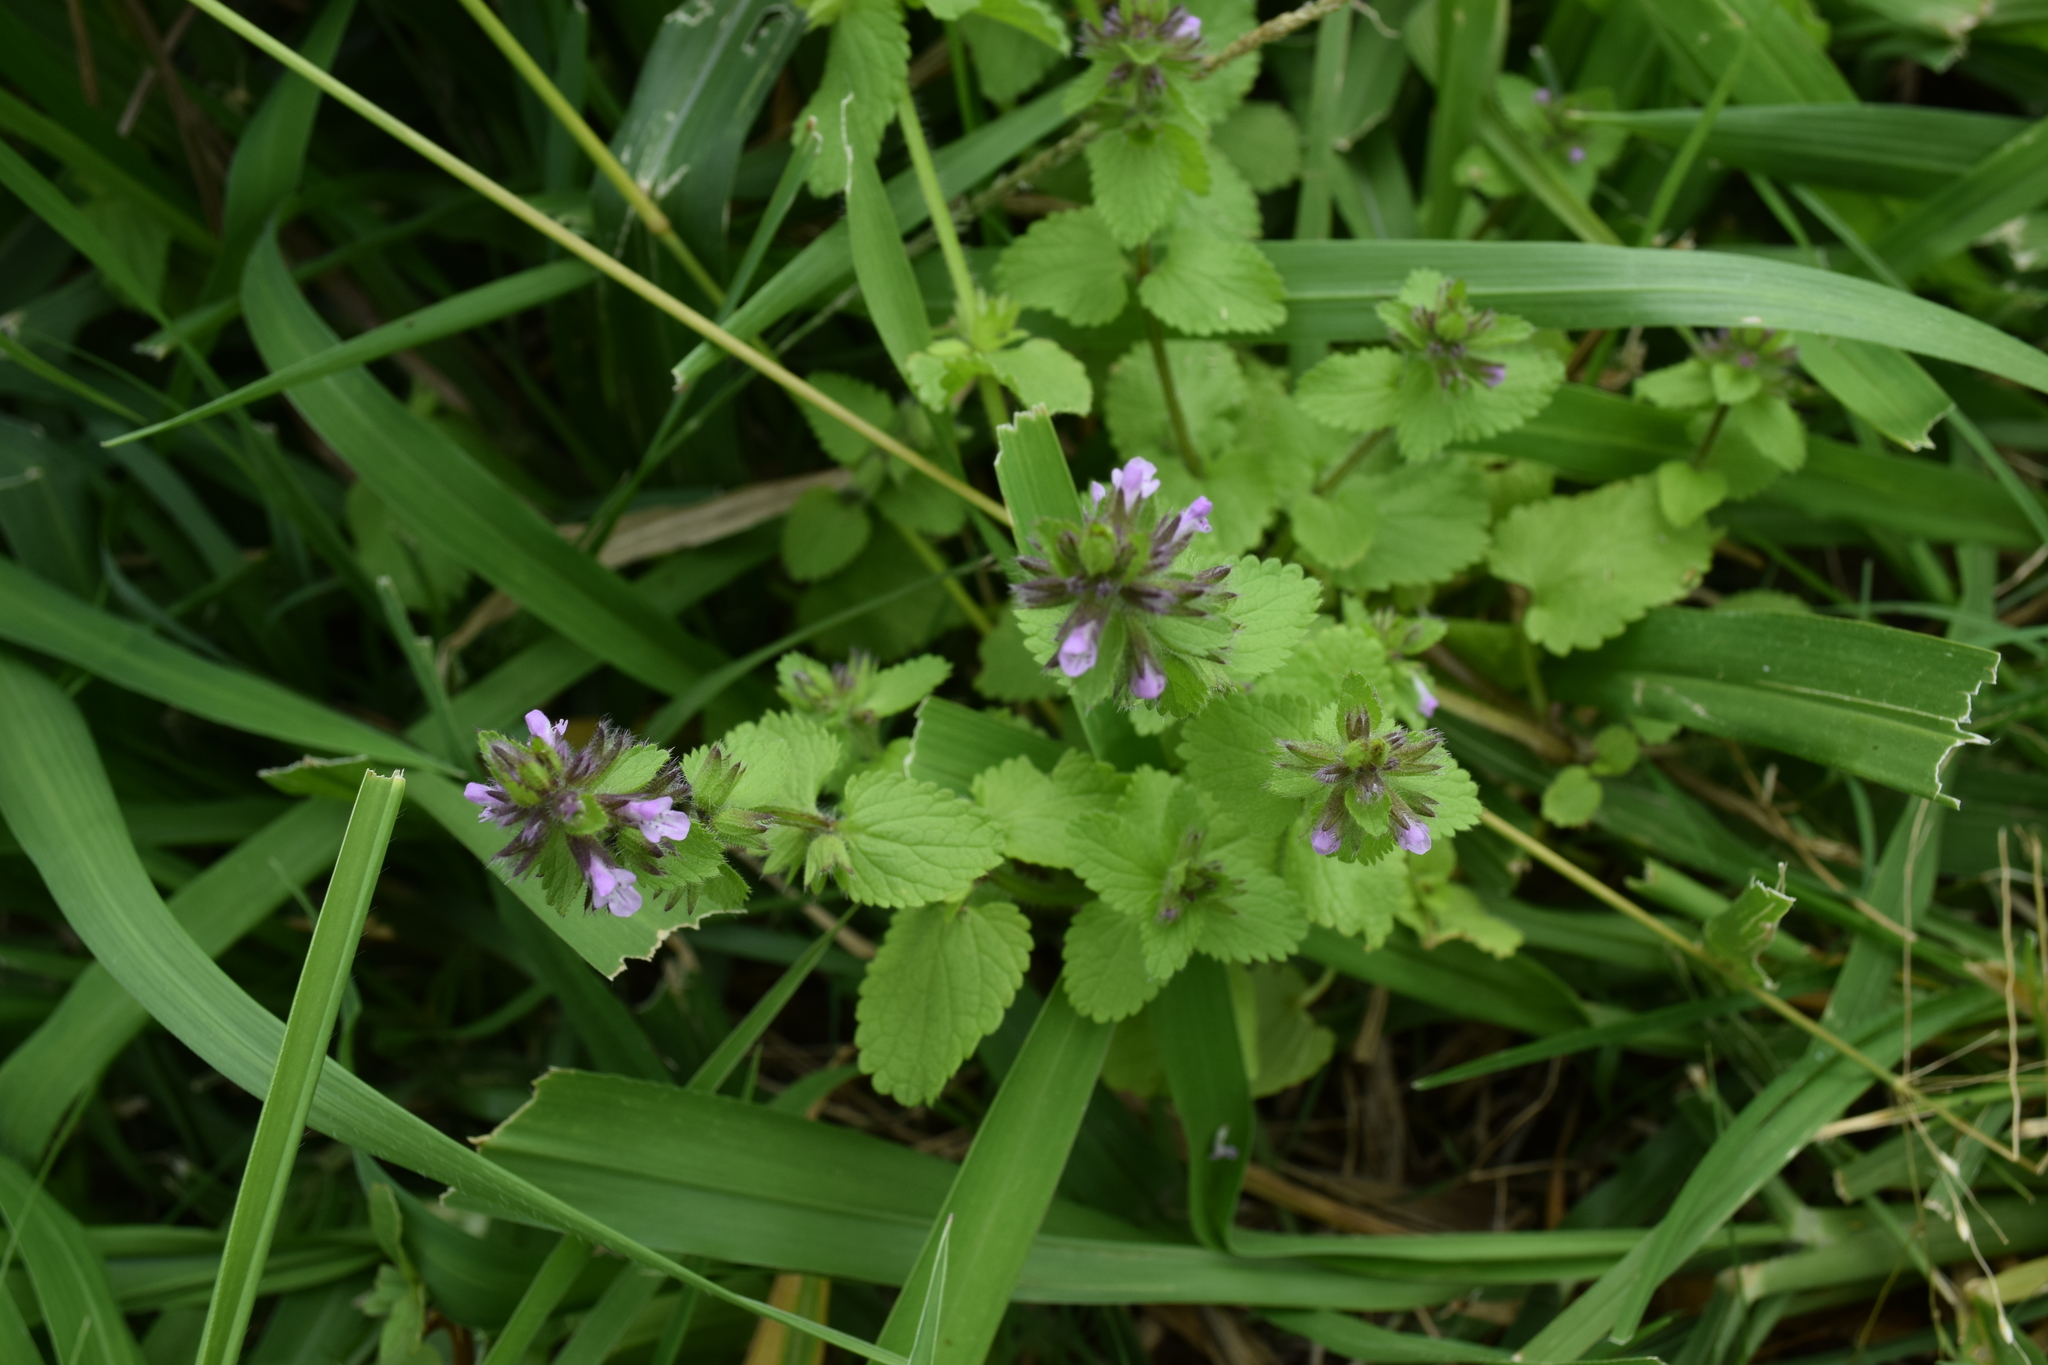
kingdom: Plantae
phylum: Tracheophyta
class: Magnoliopsida
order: Lamiales
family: Lamiaceae
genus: Stachys
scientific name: Stachys arvensis
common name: Field woundwort
